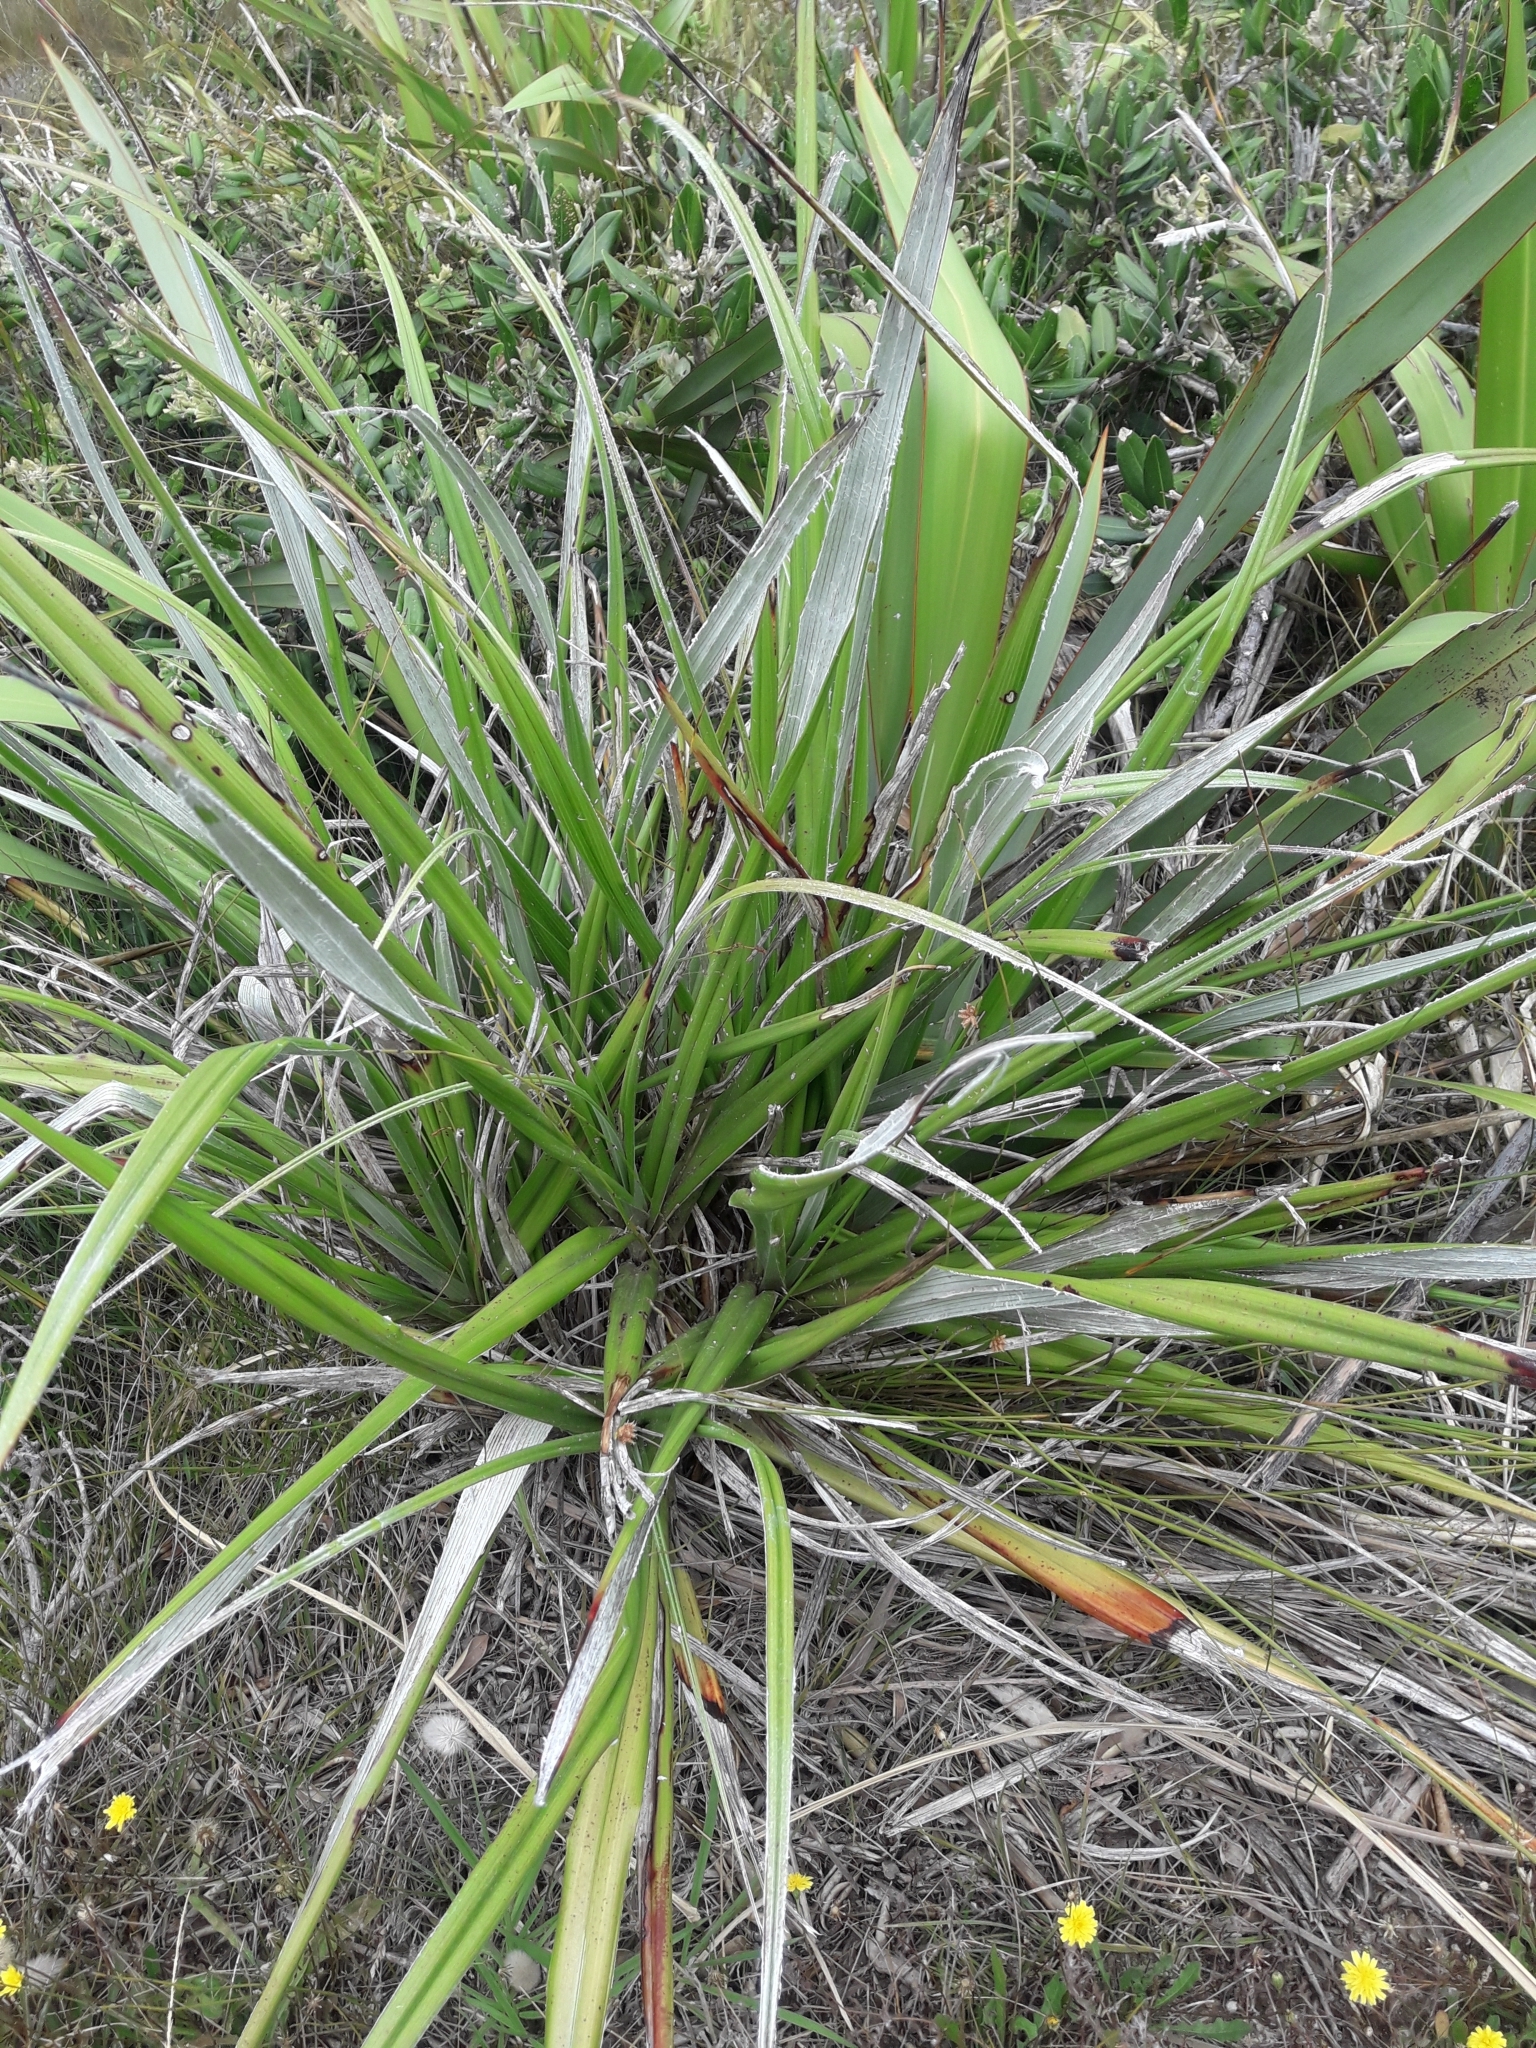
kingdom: Plantae
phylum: Tracheophyta
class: Liliopsida
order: Asparagales
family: Asteliaceae
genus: Astelia
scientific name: Astelia banksii
